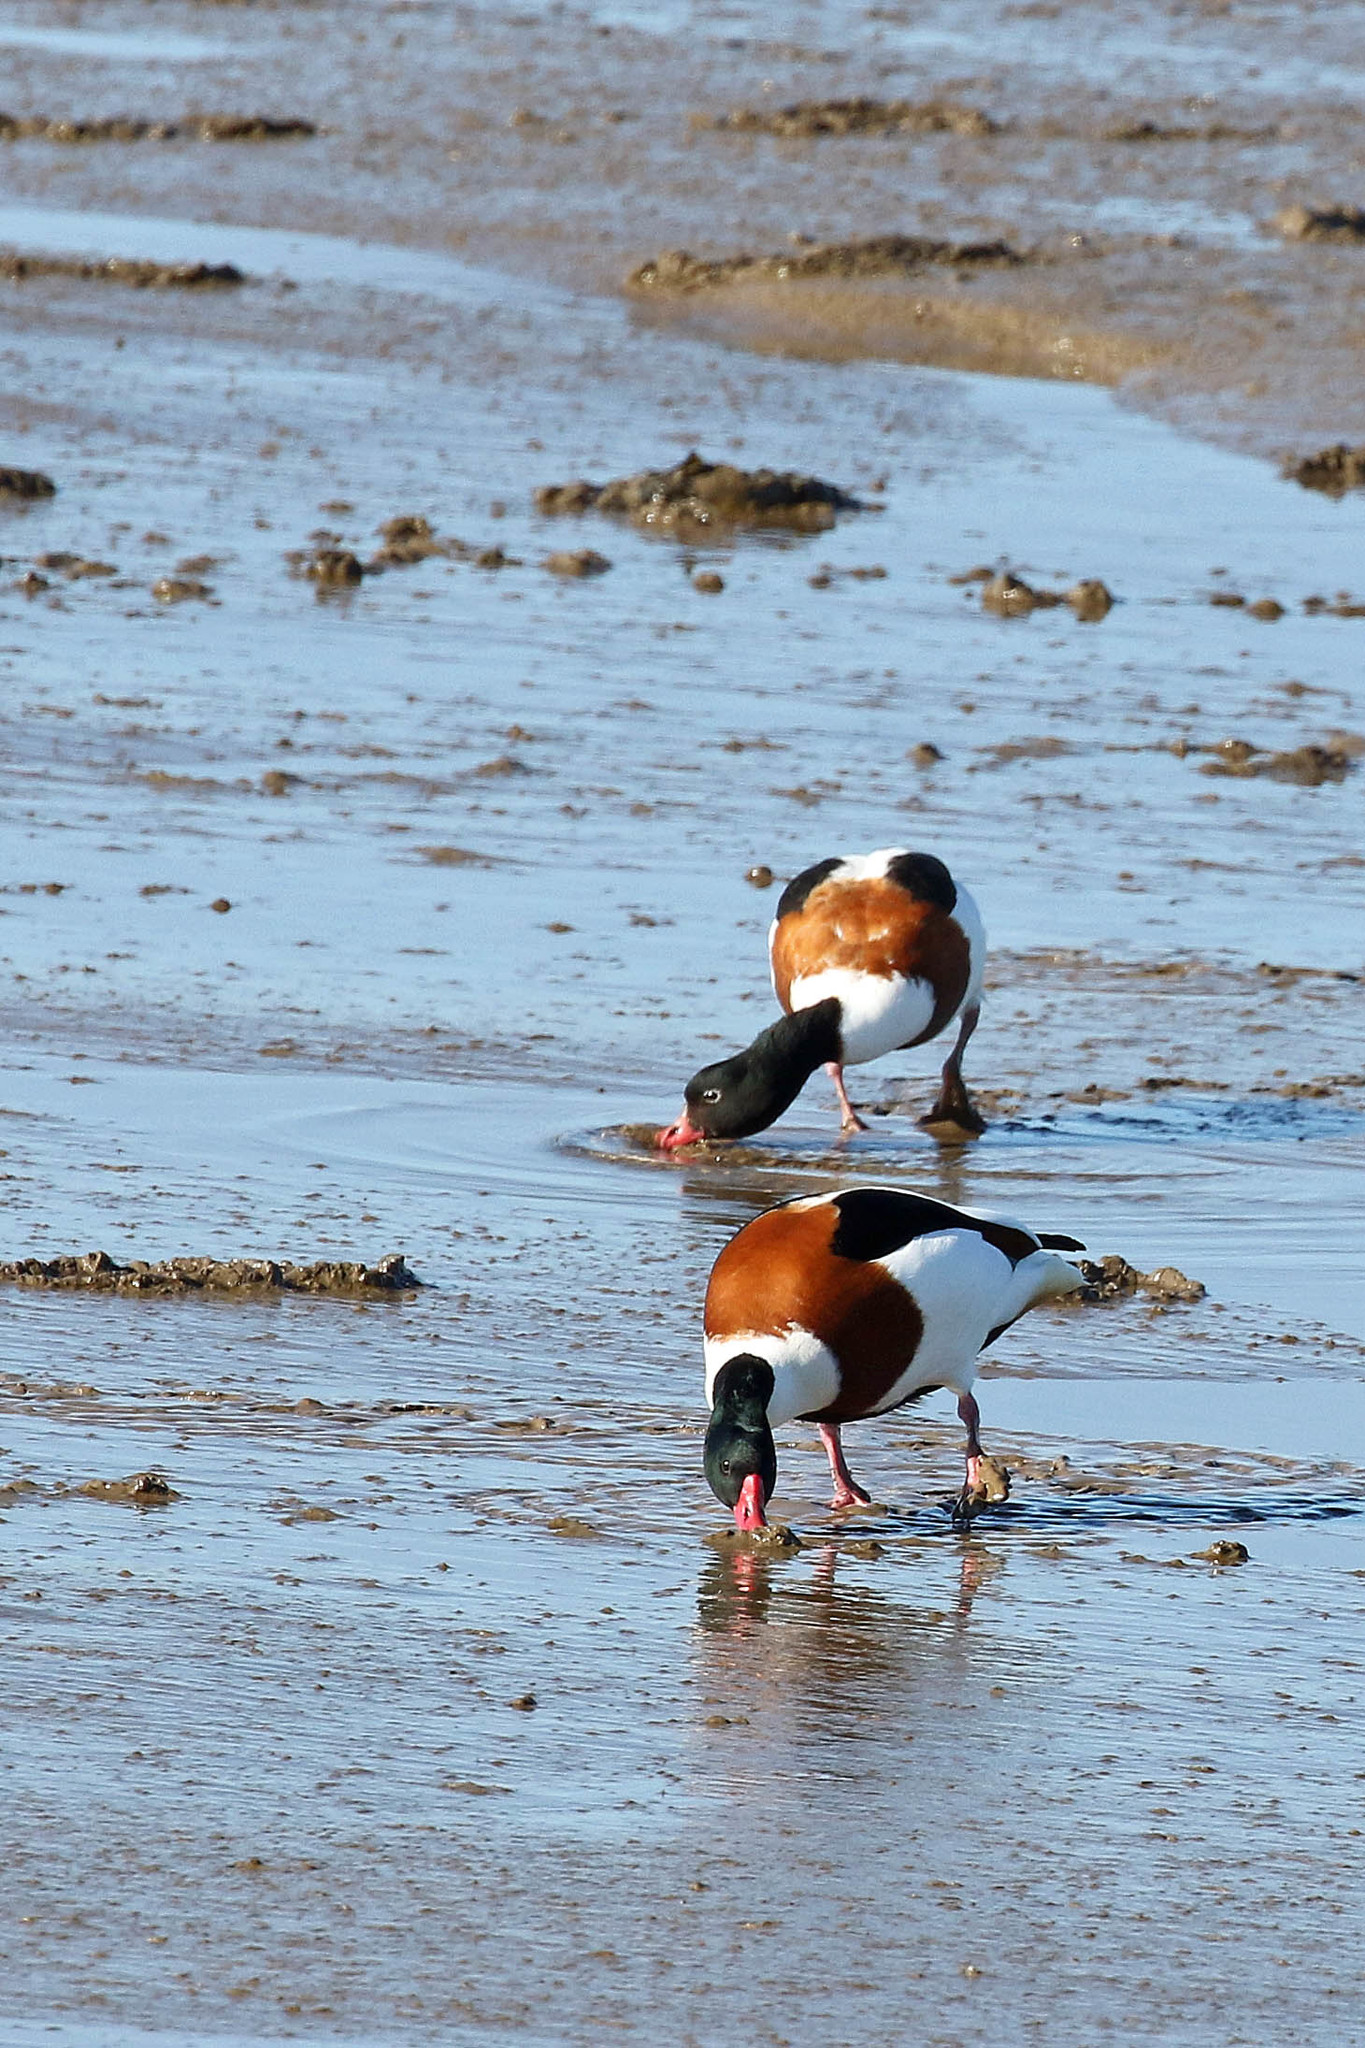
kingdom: Animalia
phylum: Chordata
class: Aves
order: Anseriformes
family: Anatidae
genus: Tadorna
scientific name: Tadorna tadorna
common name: Common shelduck
